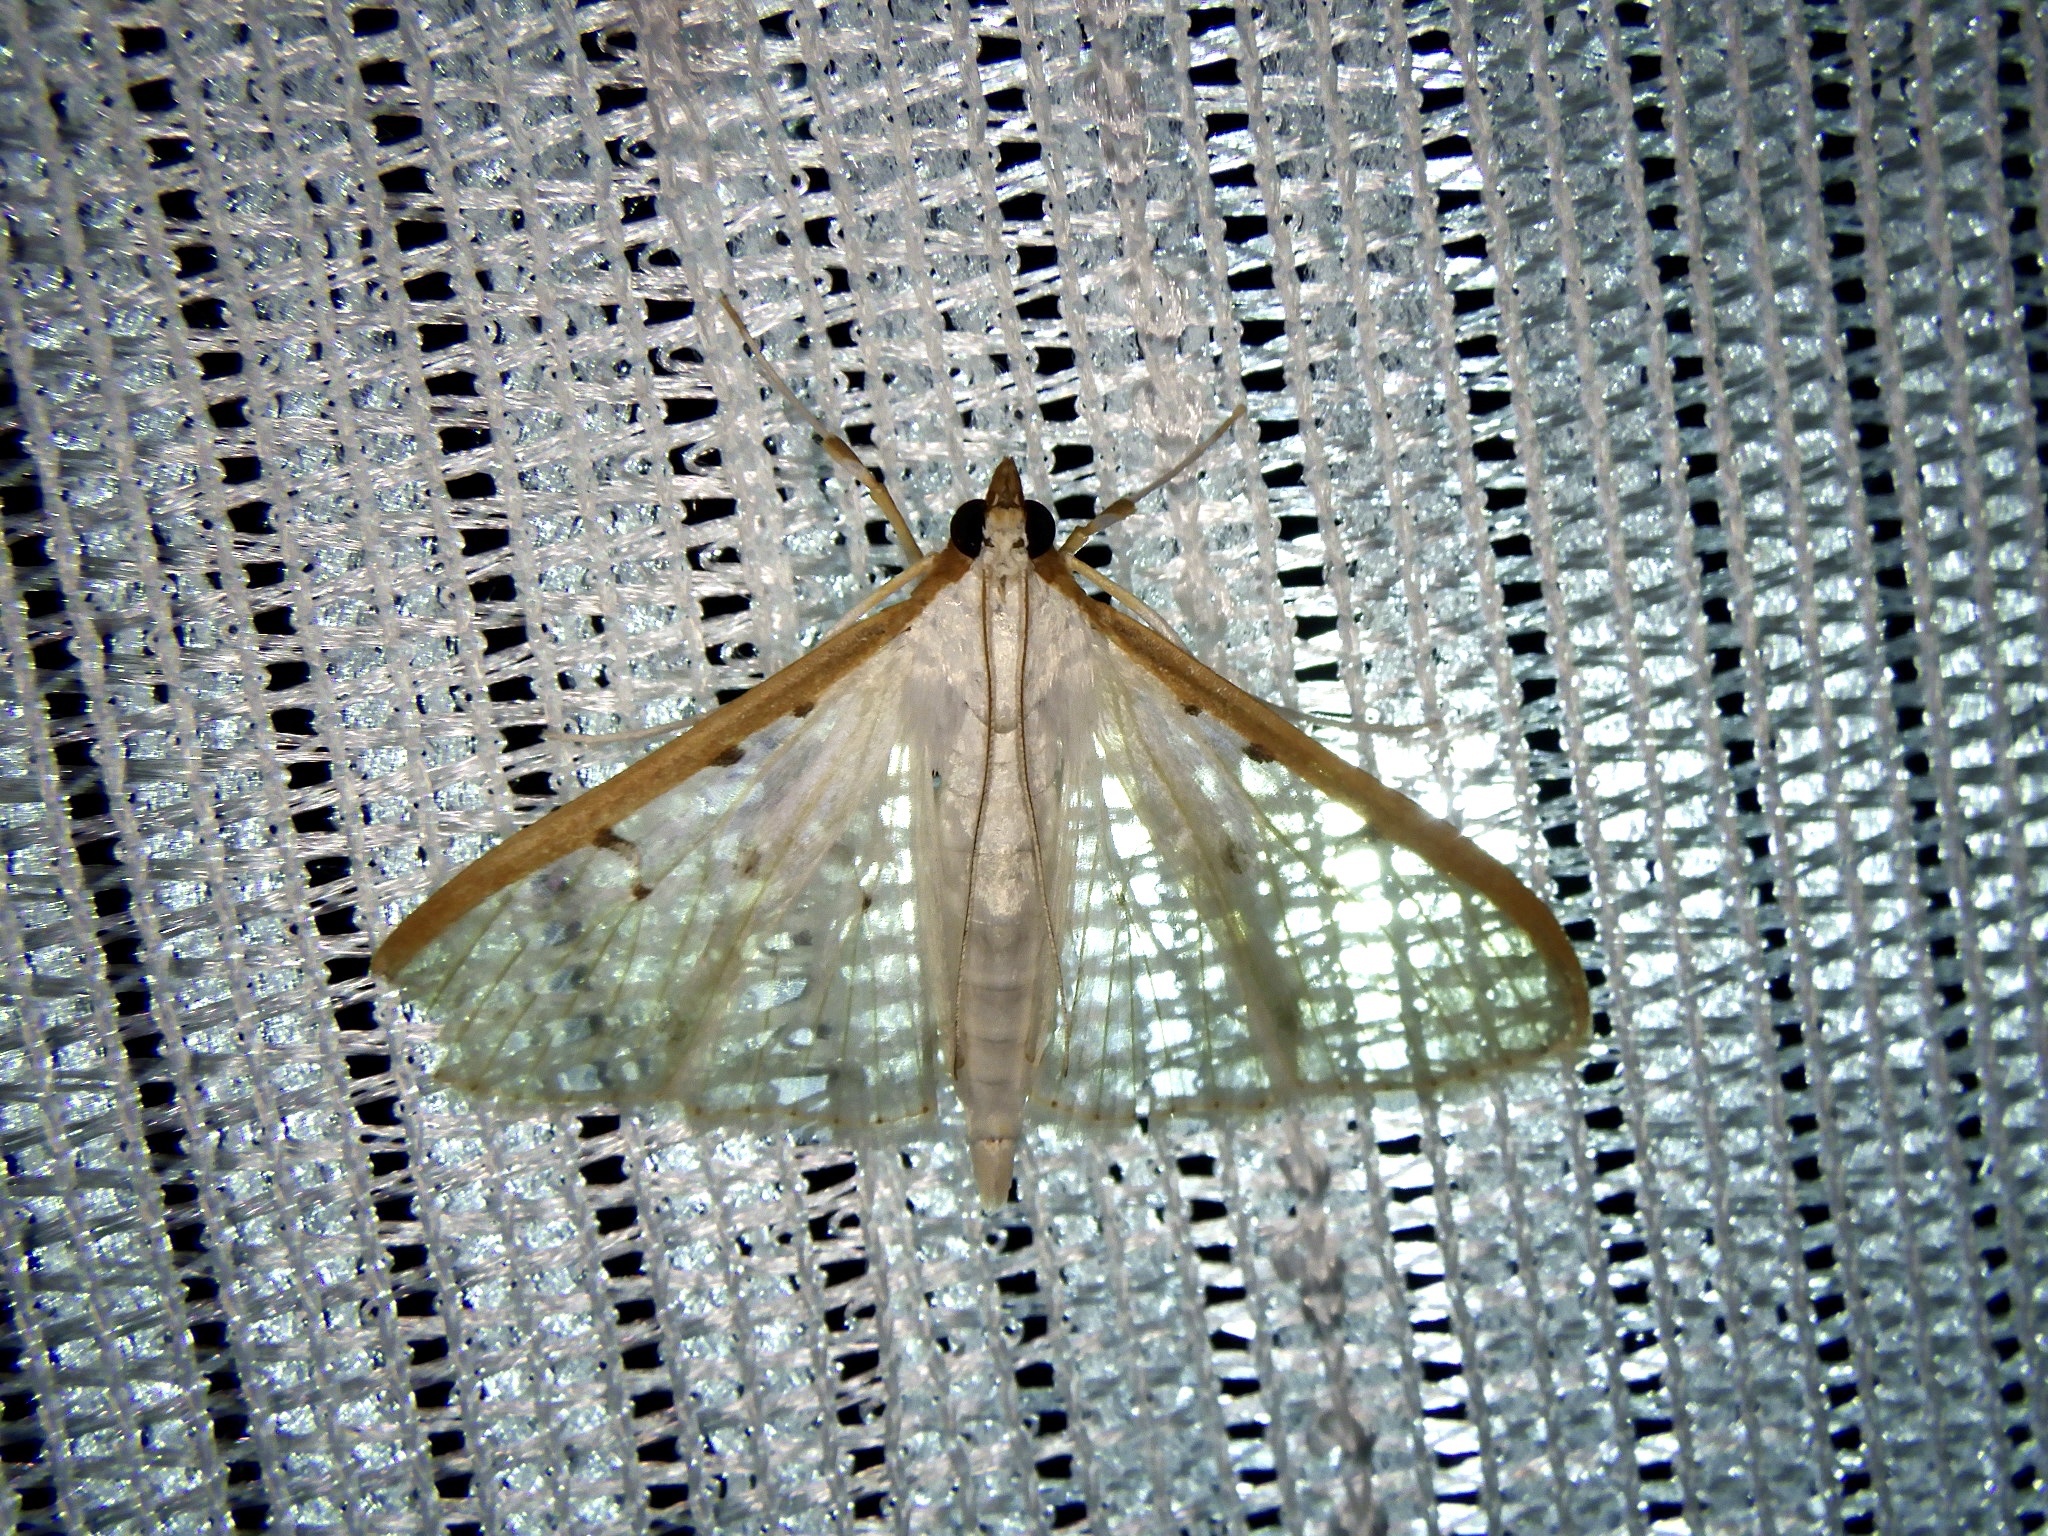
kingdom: Animalia
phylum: Arthropoda
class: Insecta
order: Lepidoptera
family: Crambidae
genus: Palpita
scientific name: Palpita nigropunctalis
